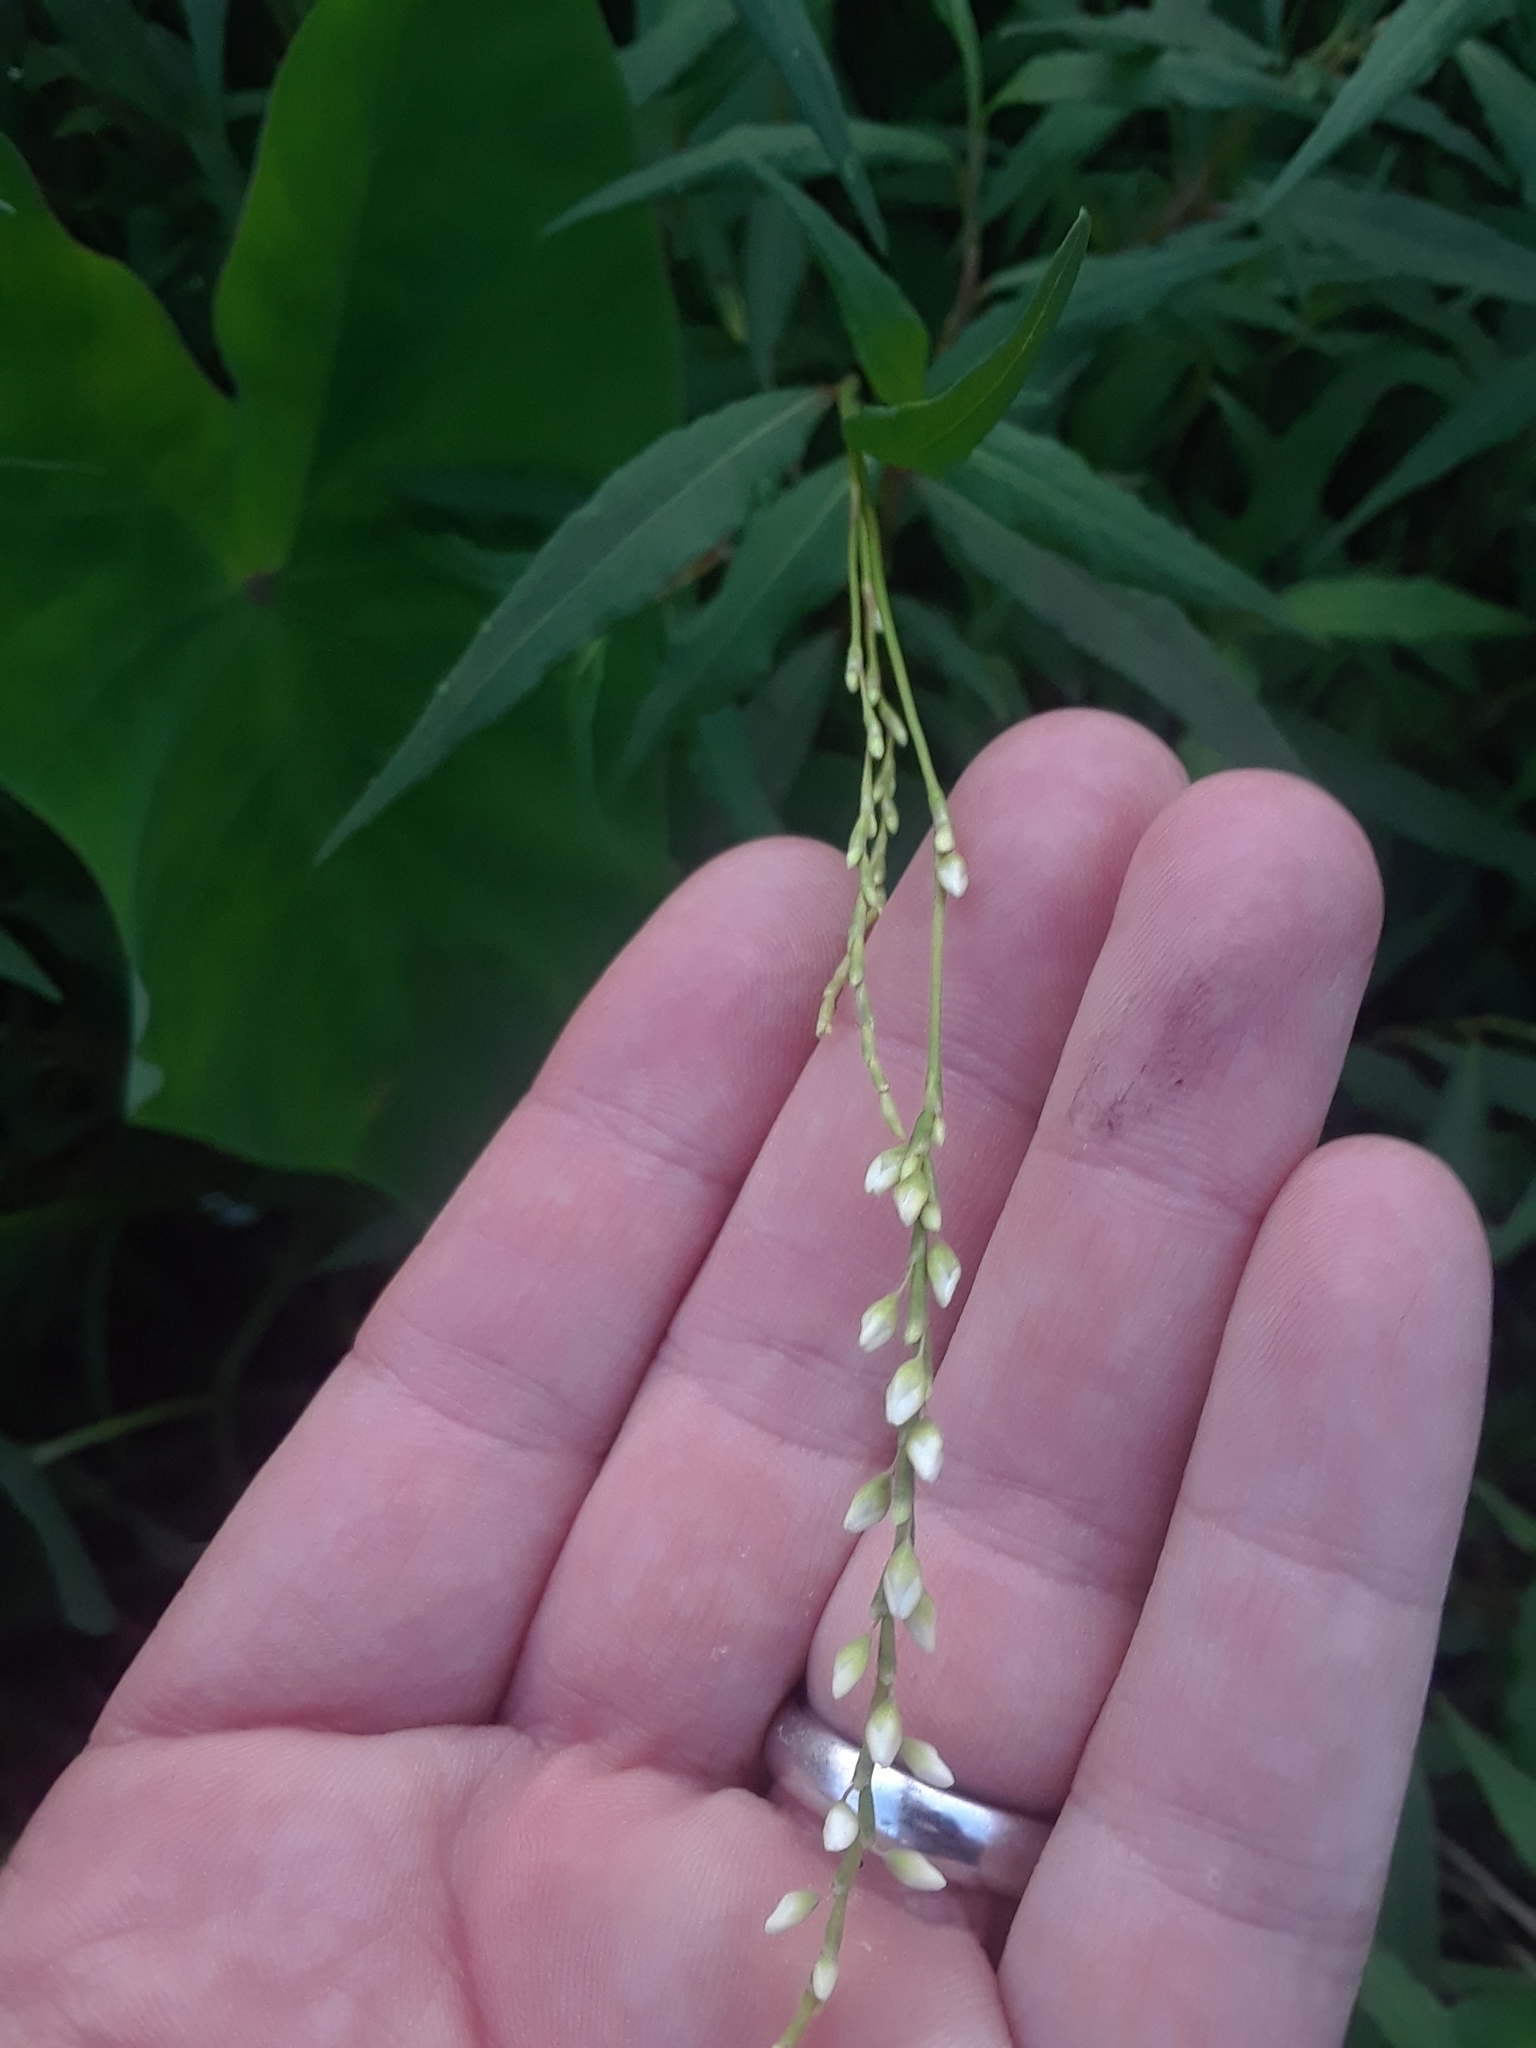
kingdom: Plantae
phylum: Tracheophyta
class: Magnoliopsida
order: Caryophyllales
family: Polygonaceae
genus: Persicaria
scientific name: Persicaria hydropiperoides
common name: Swamp smartweed
